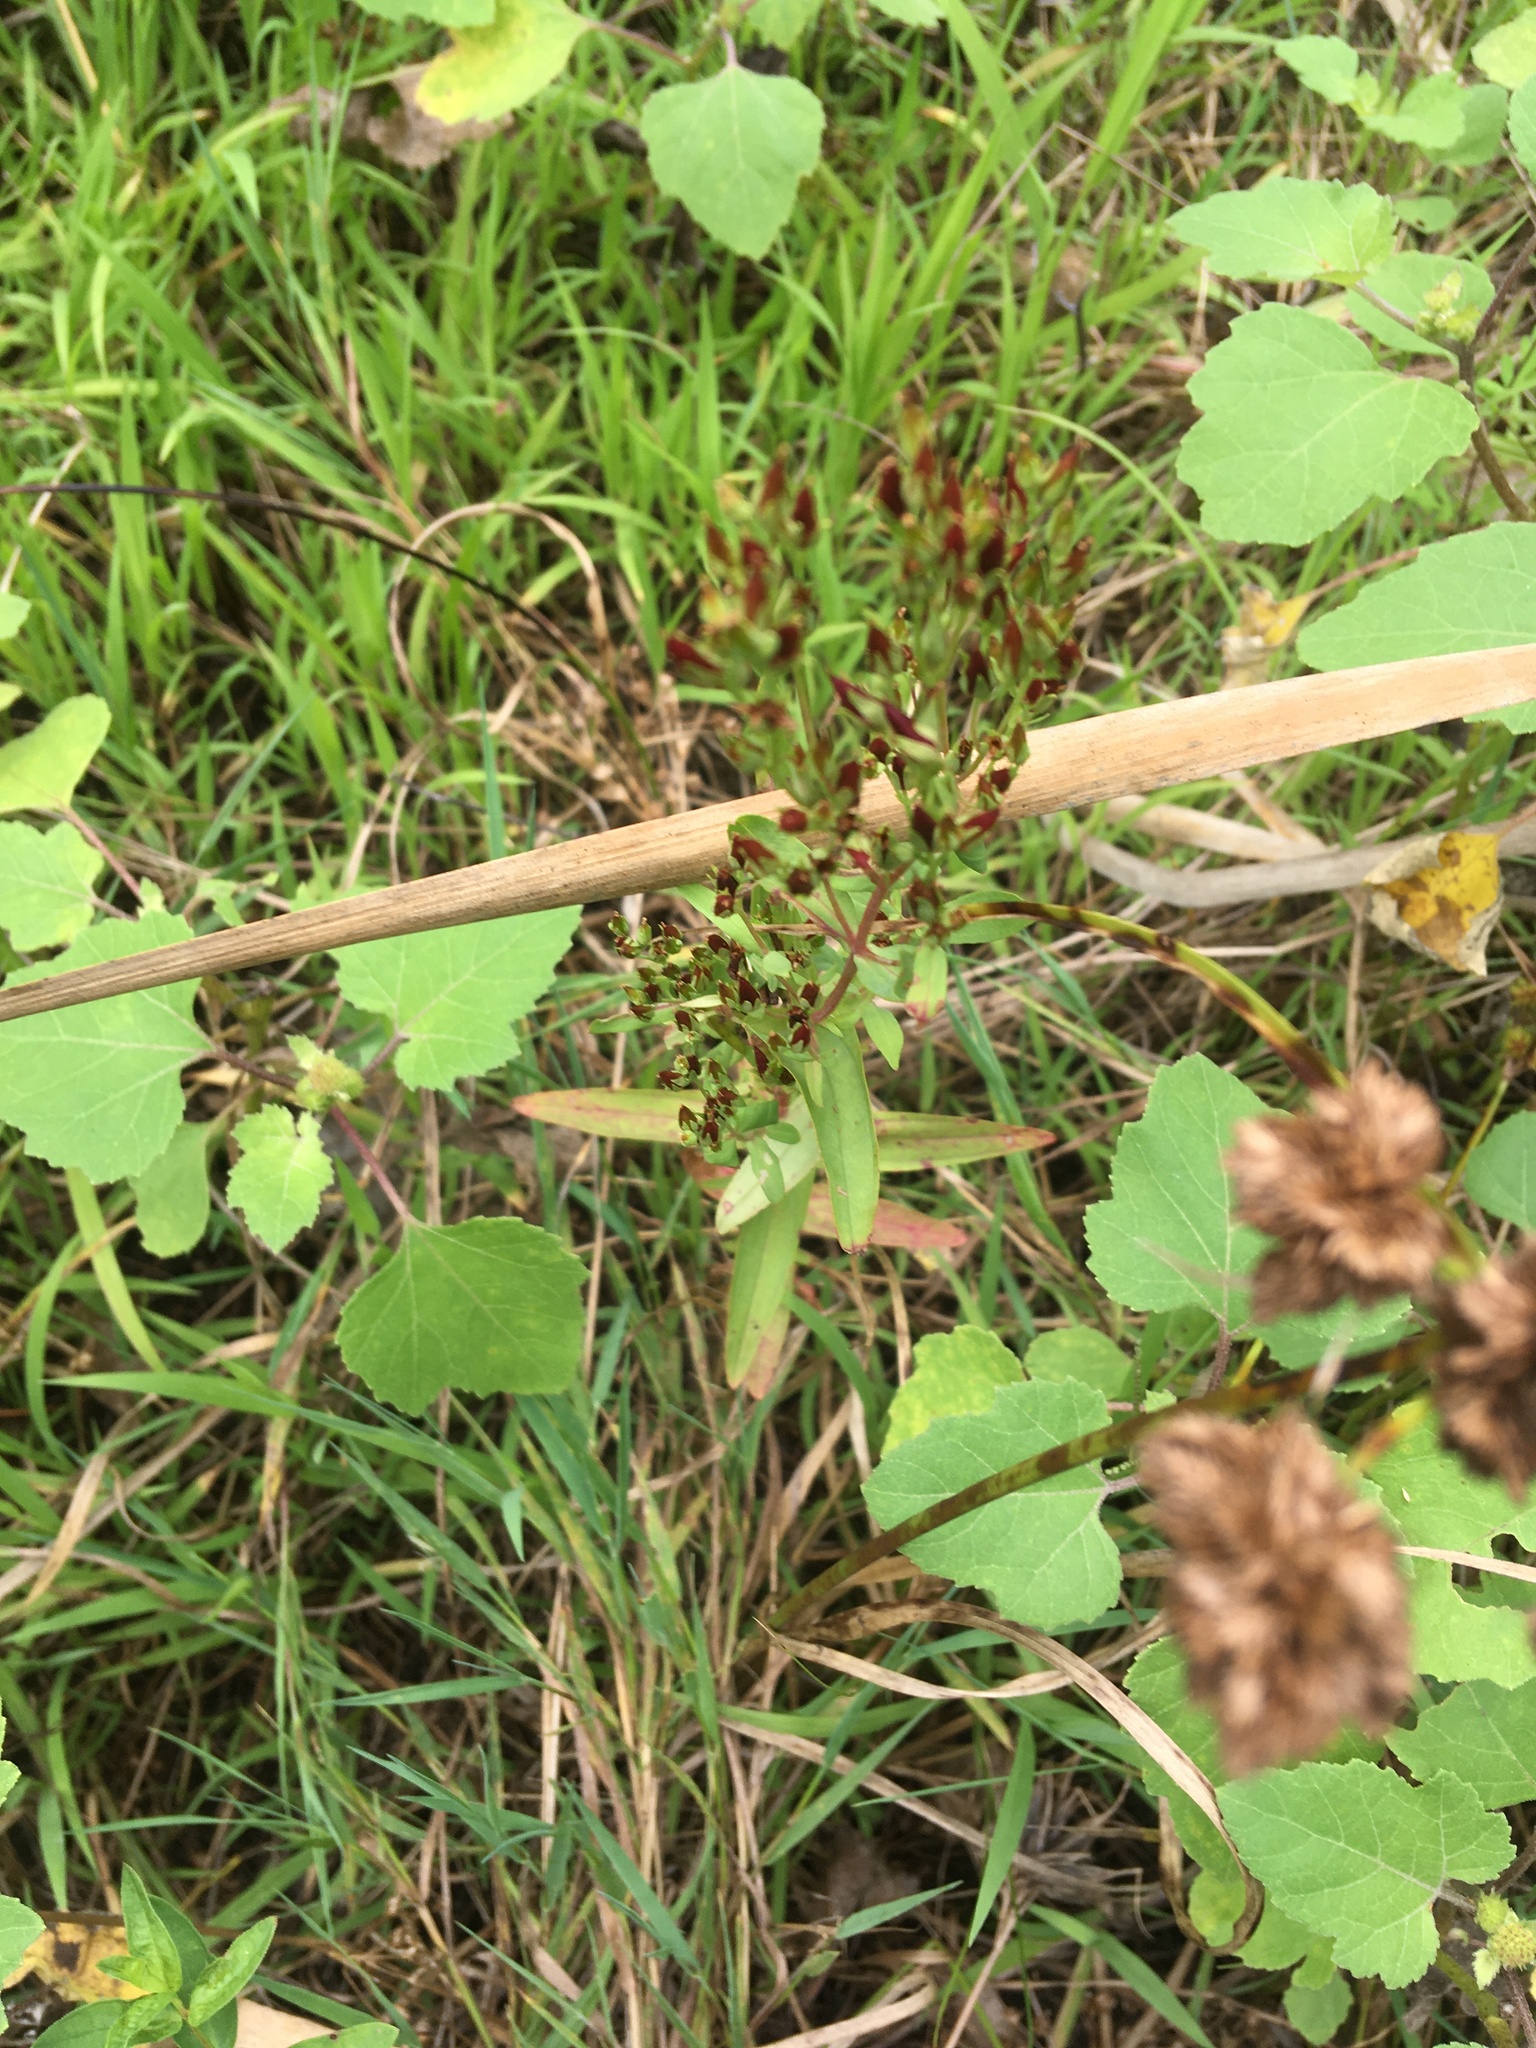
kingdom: Plantae
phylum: Tracheophyta
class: Magnoliopsida
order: Malpighiales
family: Hypericaceae
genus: Hypericum
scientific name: Hypericum majus
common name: Greater canadian st. john's-wort
